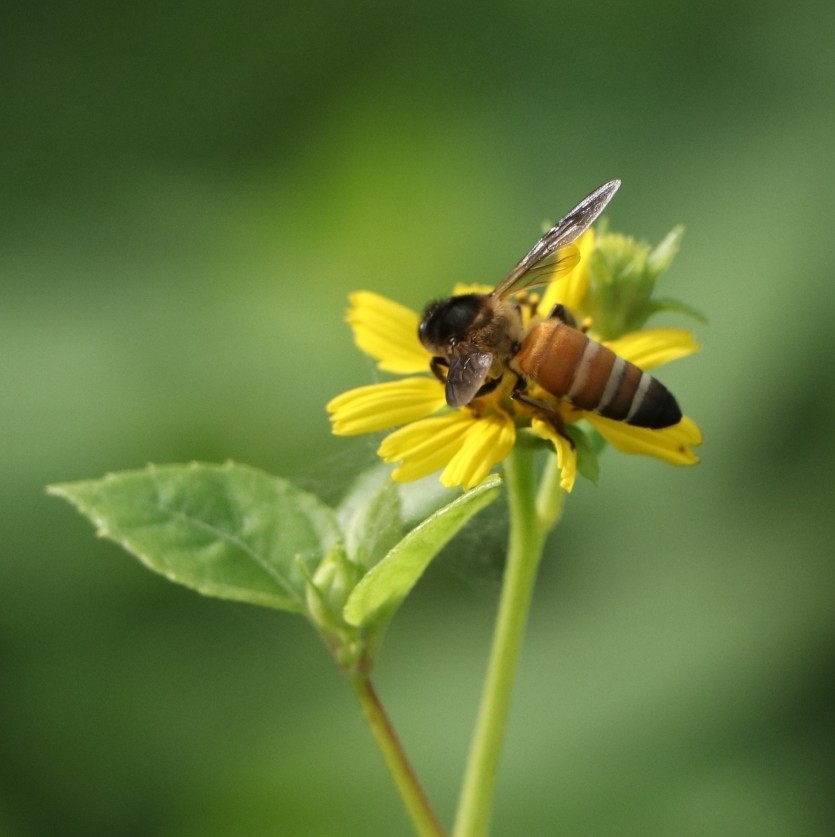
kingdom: Animalia
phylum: Arthropoda
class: Insecta
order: Hymenoptera
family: Apidae
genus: Apis
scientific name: Apis dorsata
